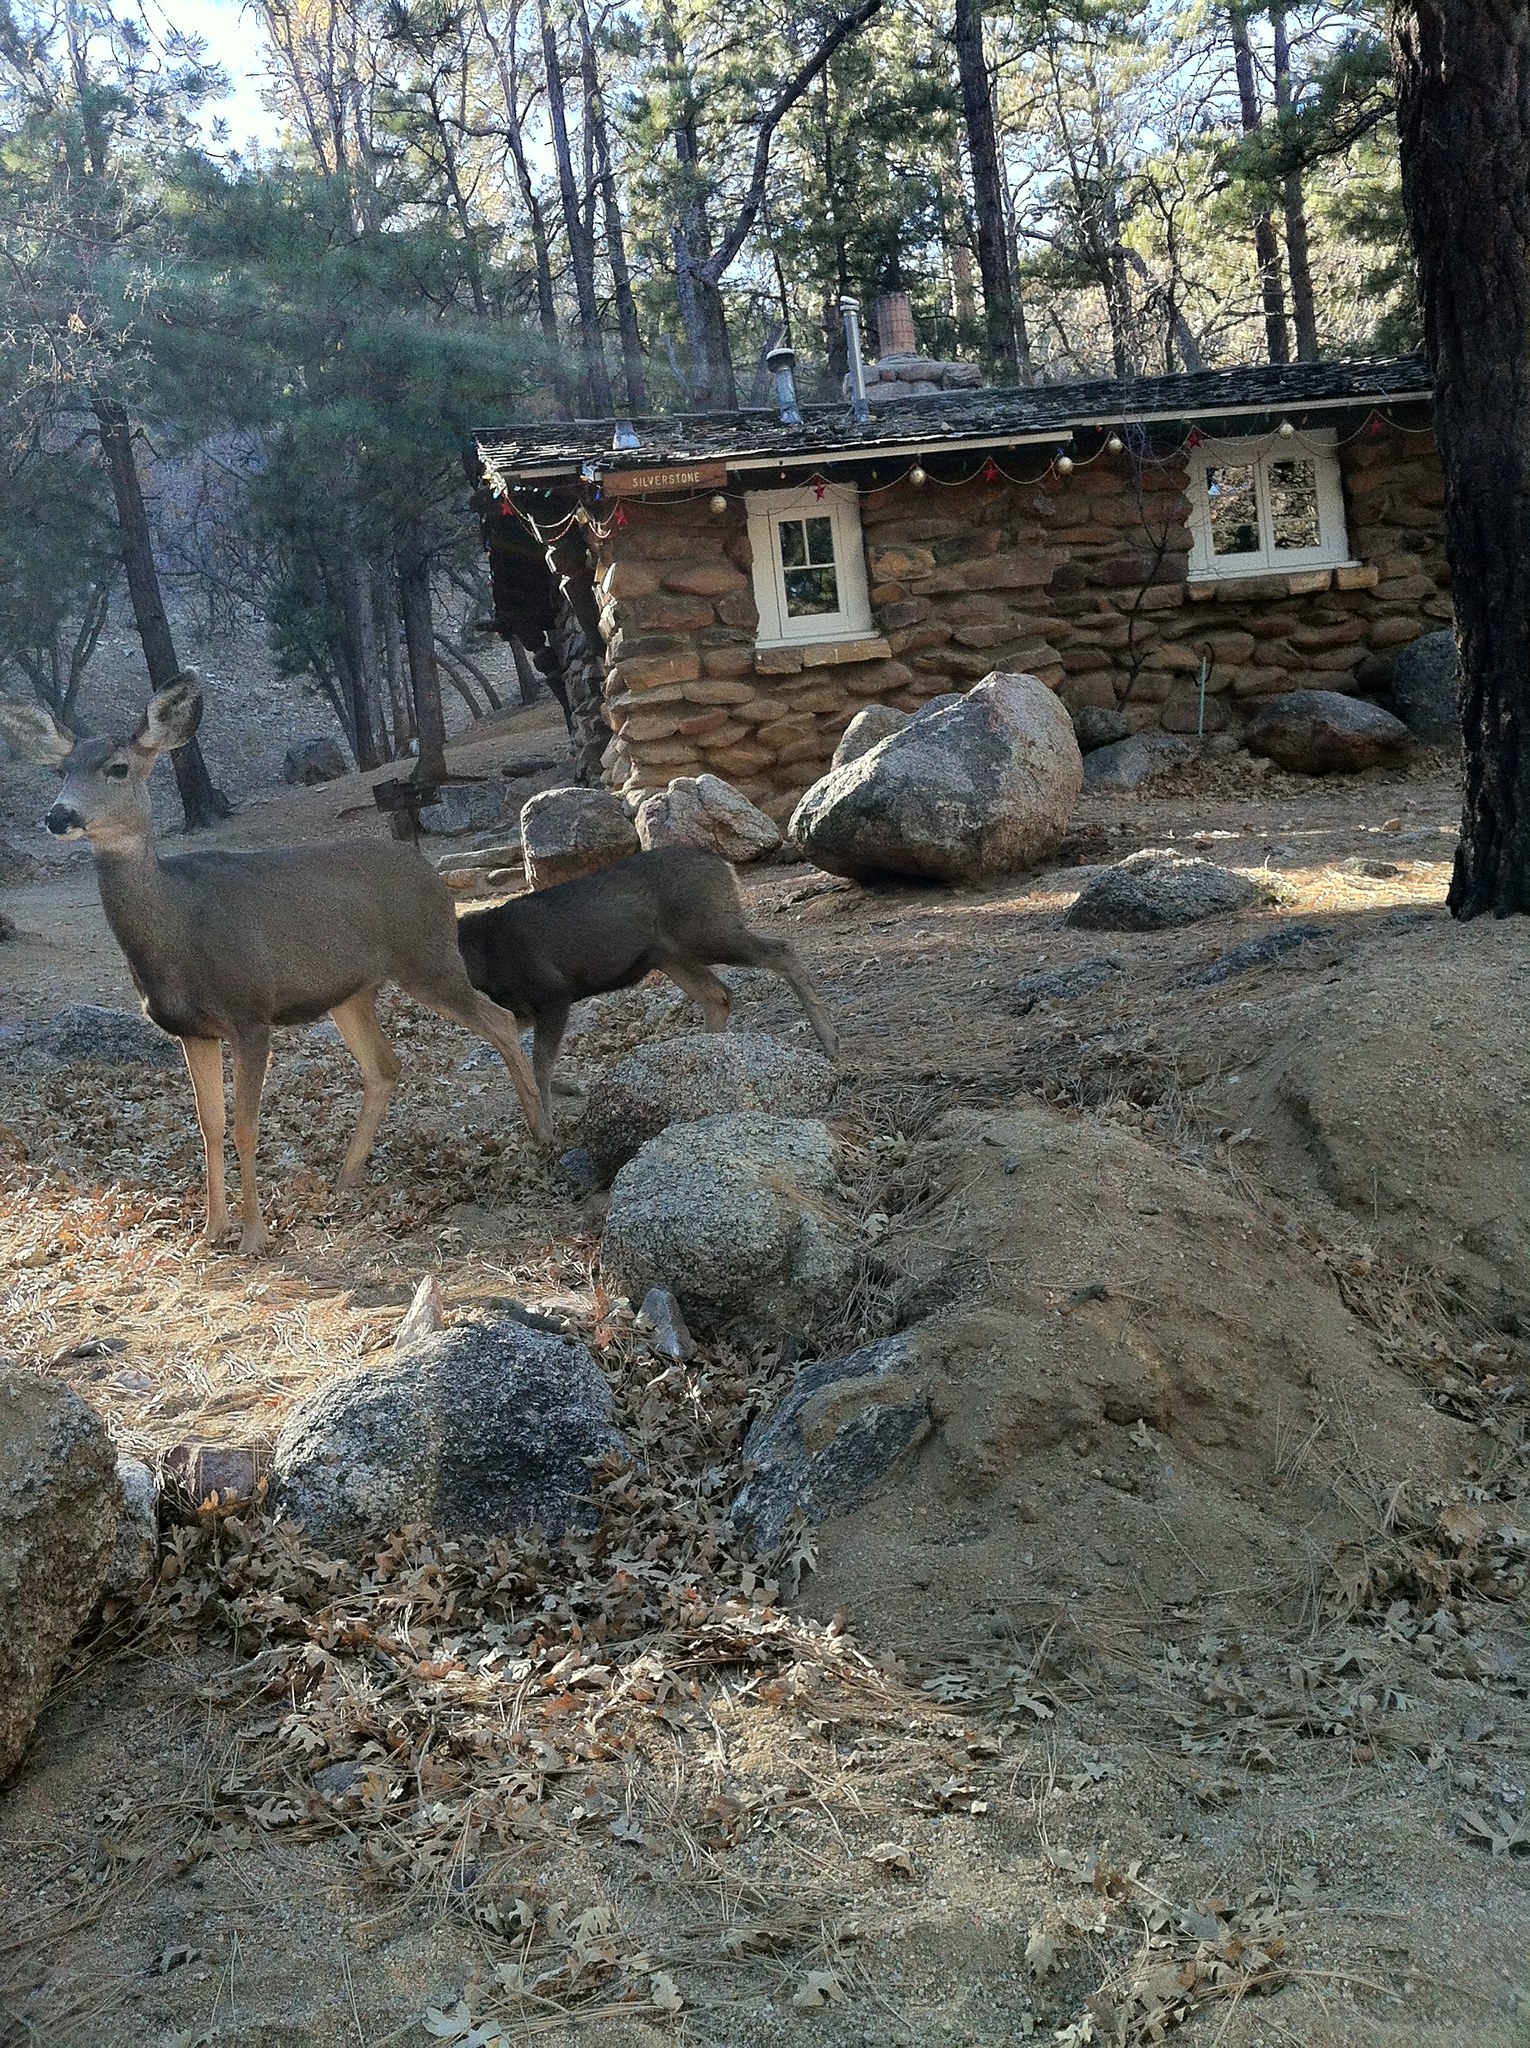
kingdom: Animalia
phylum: Chordata
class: Mammalia
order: Artiodactyla
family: Cervidae
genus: Odocoileus
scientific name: Odocoileus hemionus
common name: Mule deer
